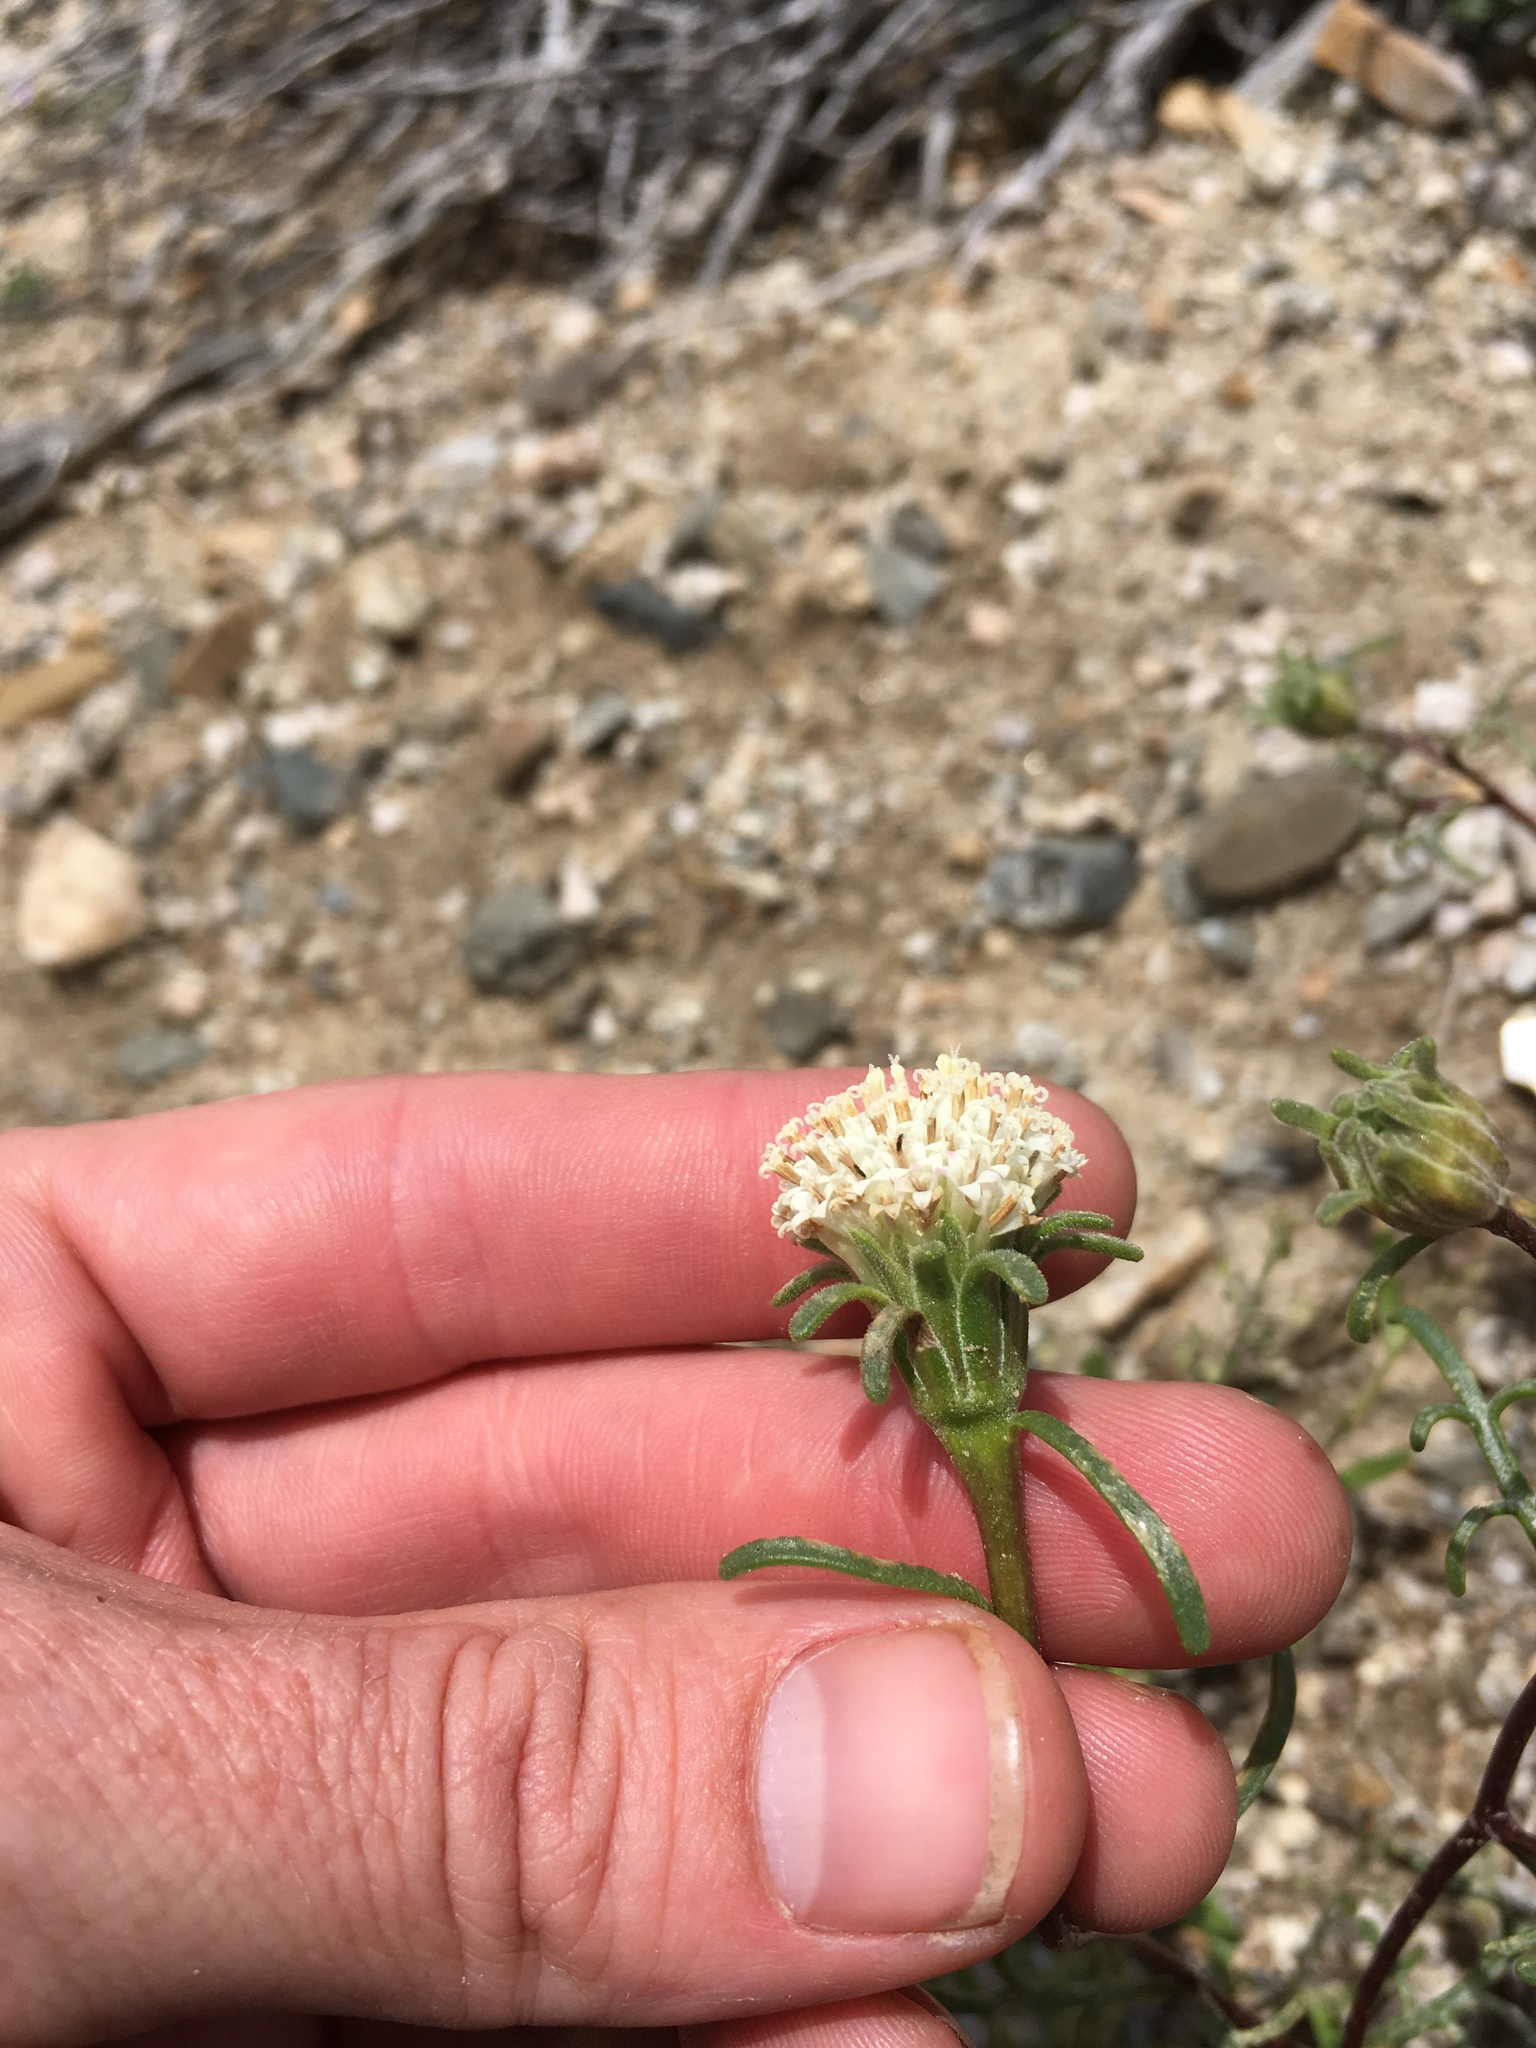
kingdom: Plantae
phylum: Tracheophyta
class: Magnoliopsida
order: Asterales
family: Asteraceae
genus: Chaenactis
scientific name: Chaenactis xantiana
